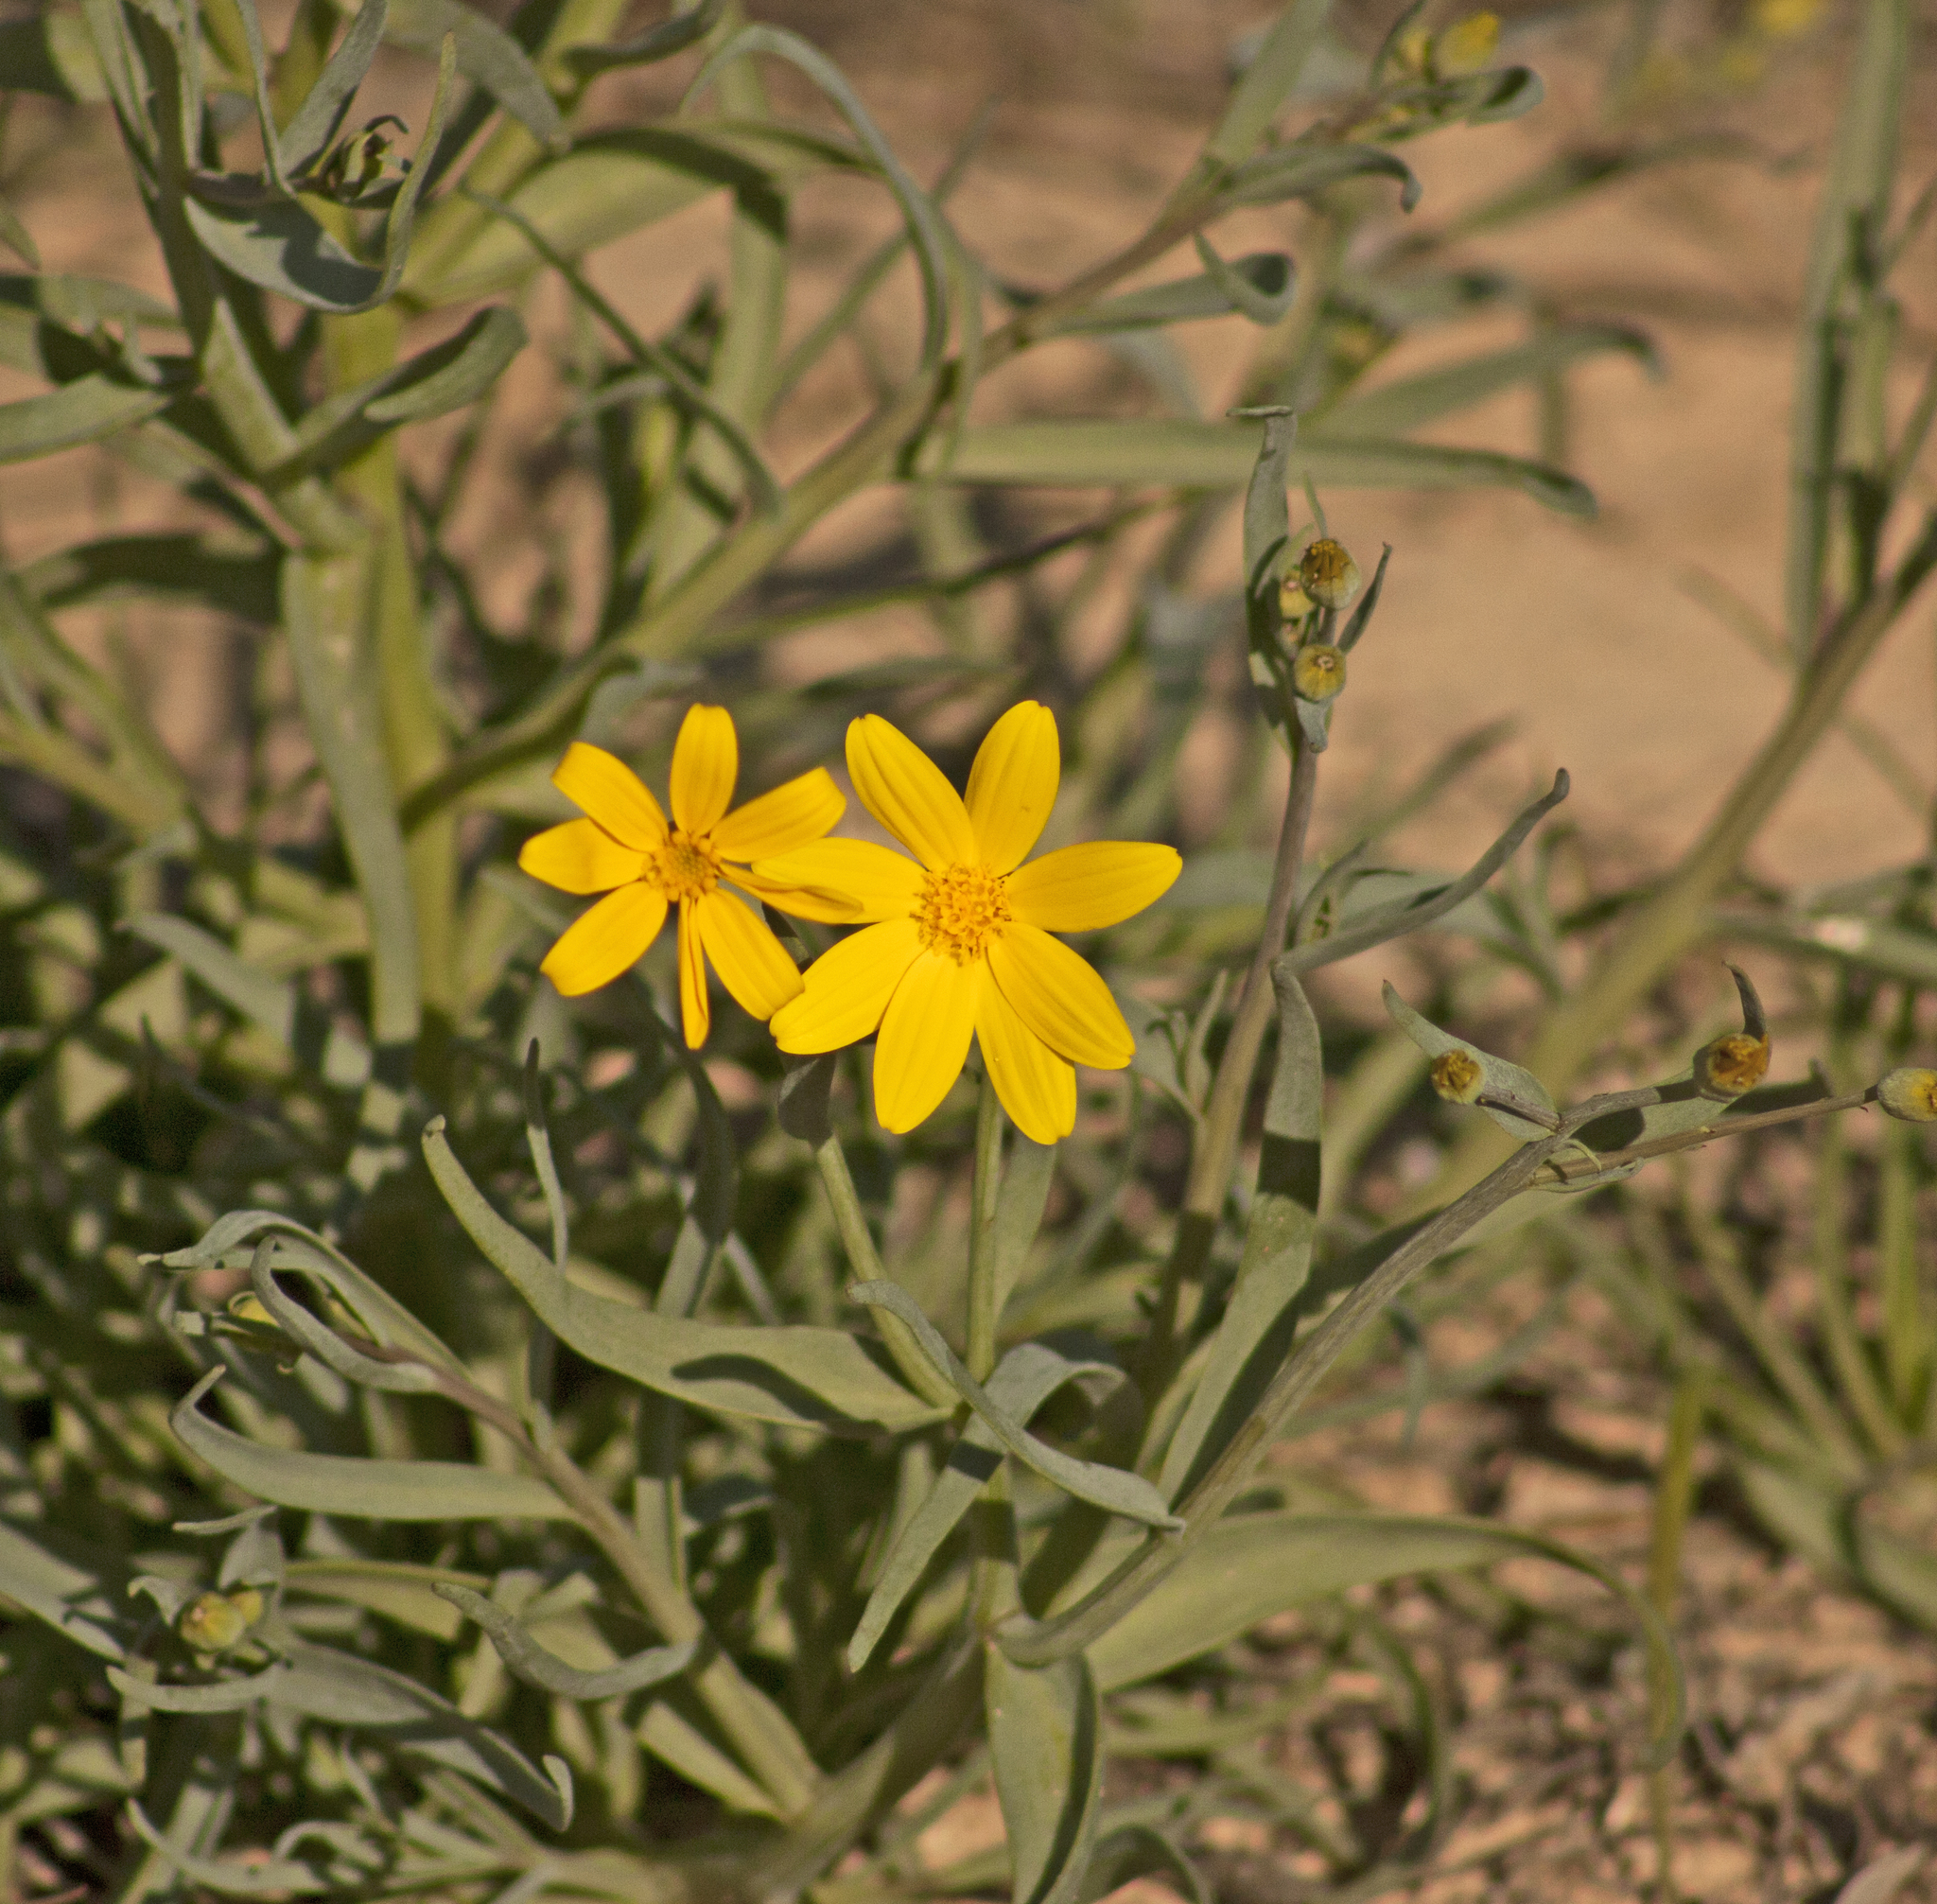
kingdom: Plantae
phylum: Tracheophyta
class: Magnoliopsida
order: Asterales
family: Asteraceae
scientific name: Asteraceae
